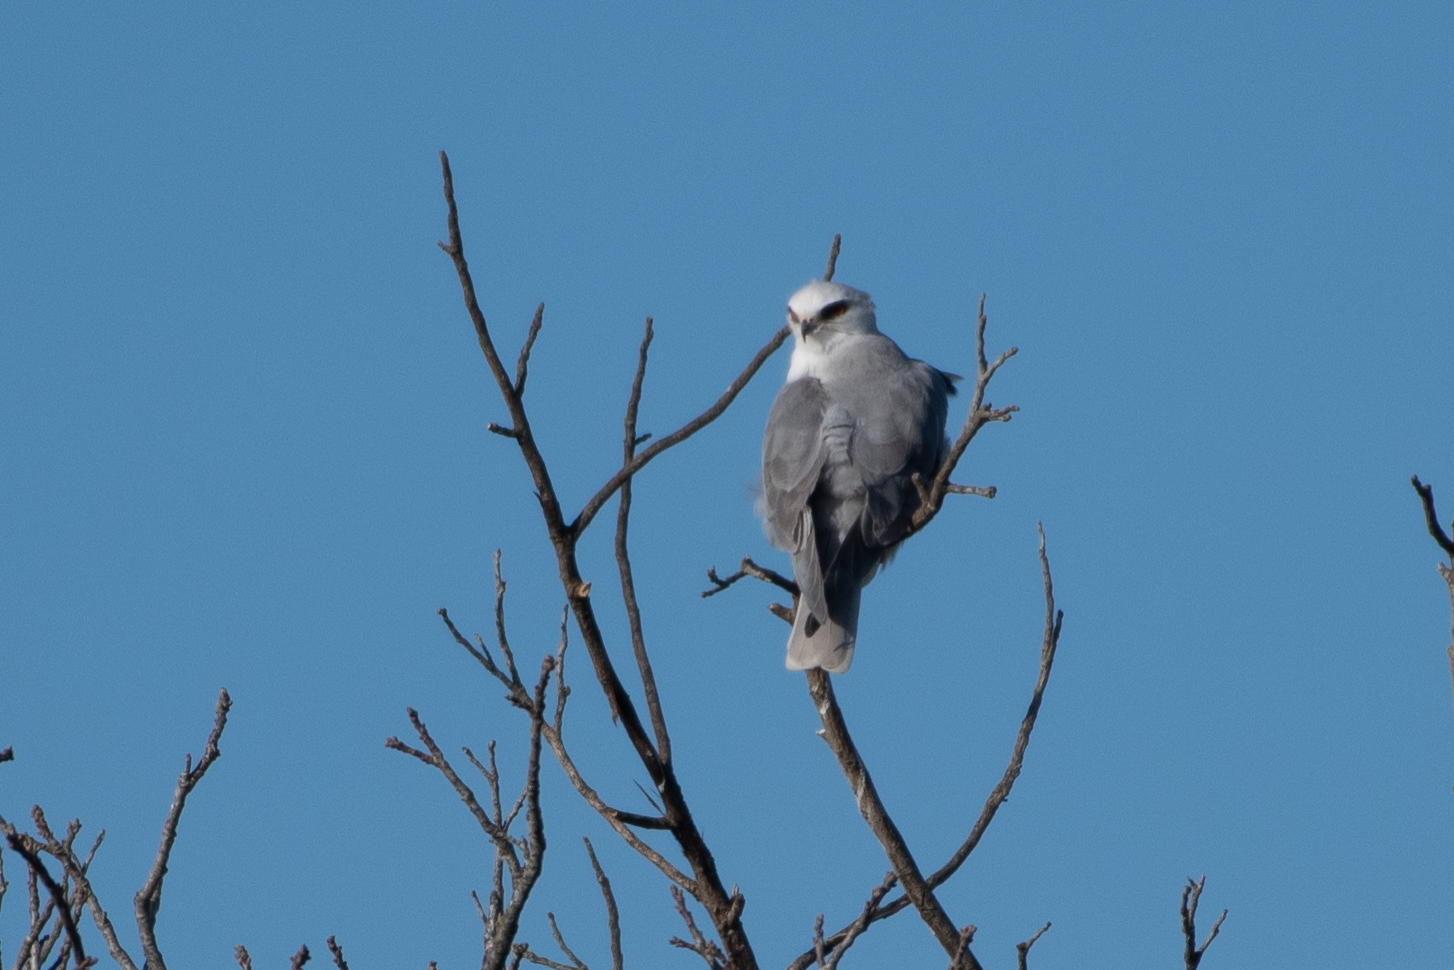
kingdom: Animalia
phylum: Chordata
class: Aves
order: Accipitriformes
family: Accipitridae
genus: Elanus
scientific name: Elanus leucurus
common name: White-tailed kite
